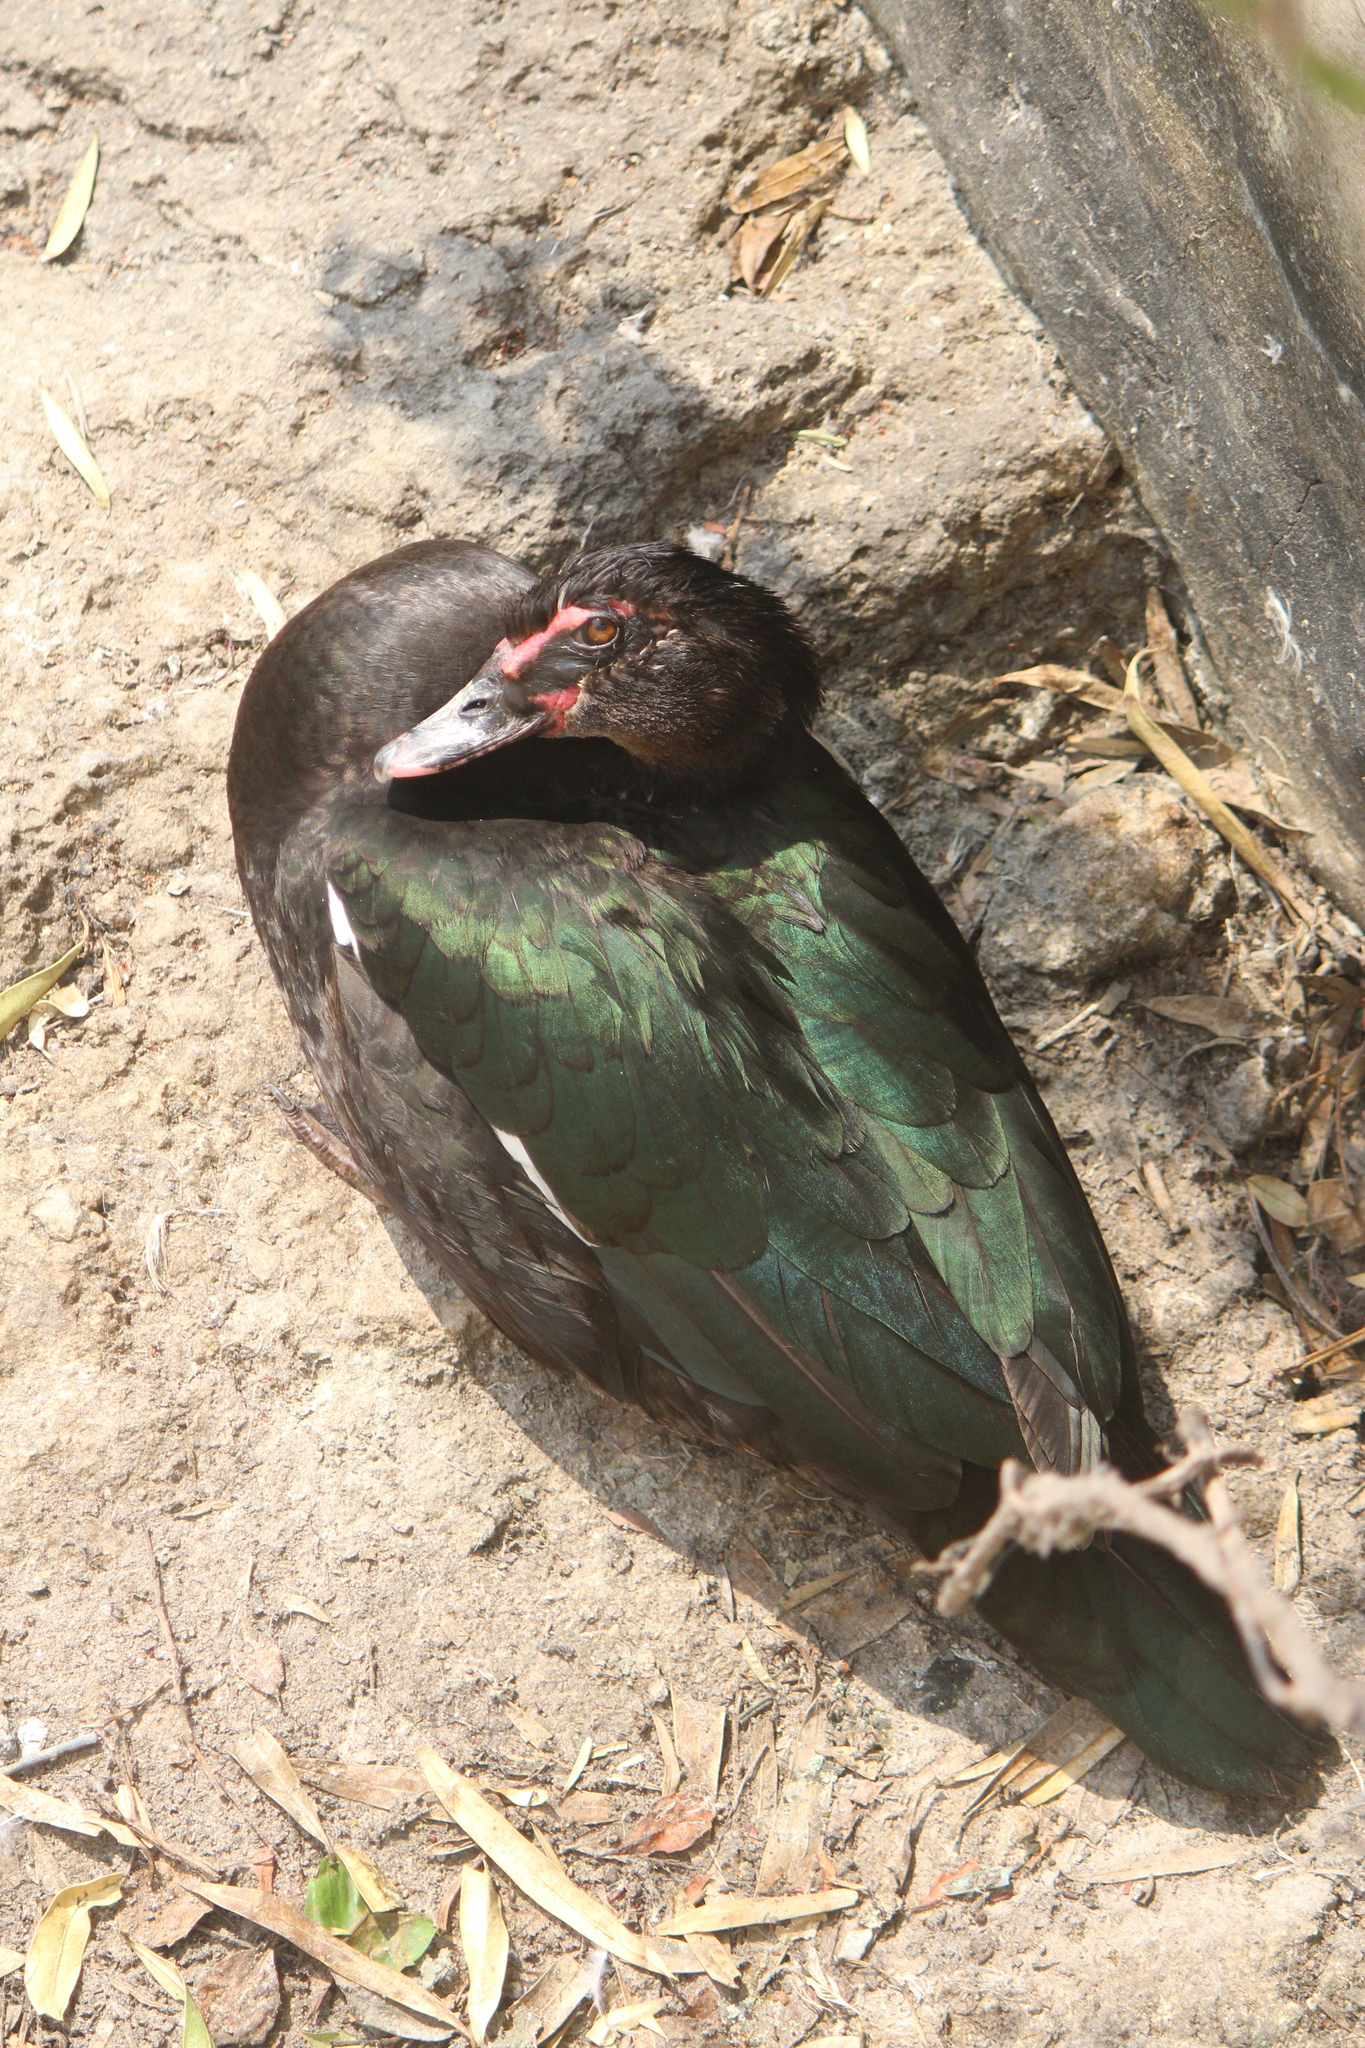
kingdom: Animalia
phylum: Chordata
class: Aves
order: Anseriformes
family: Anatidae
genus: Cairina
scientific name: Cairina moschata
